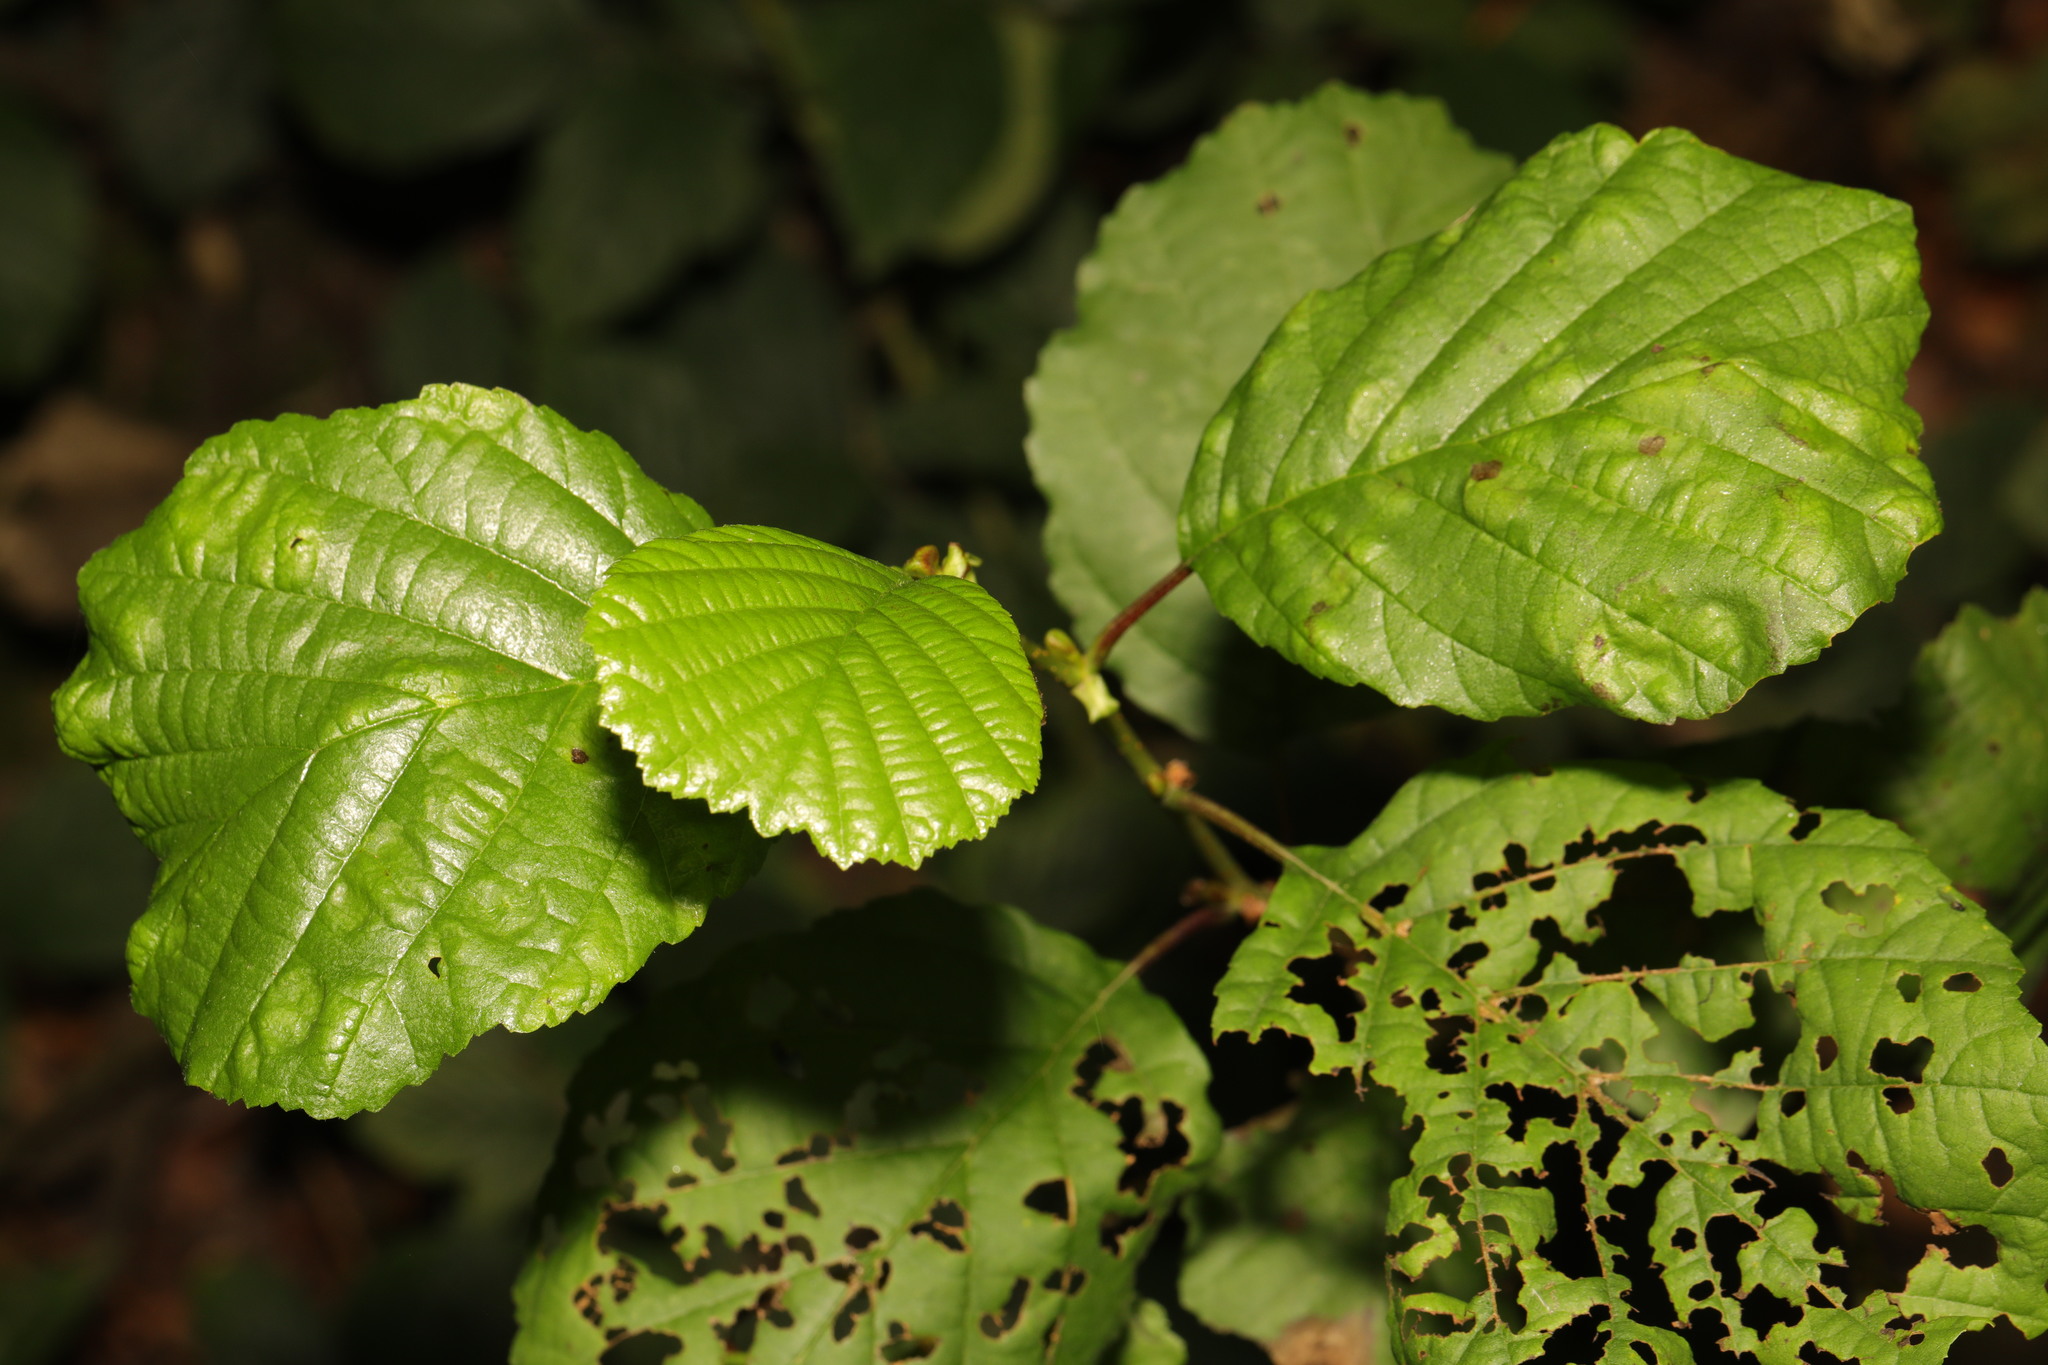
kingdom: Plantae
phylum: Tracheophyta
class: Magnoliopsida
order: Fagales
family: Betulaceae
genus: Alnus
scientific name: Alnus glutinosa
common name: Black alder
